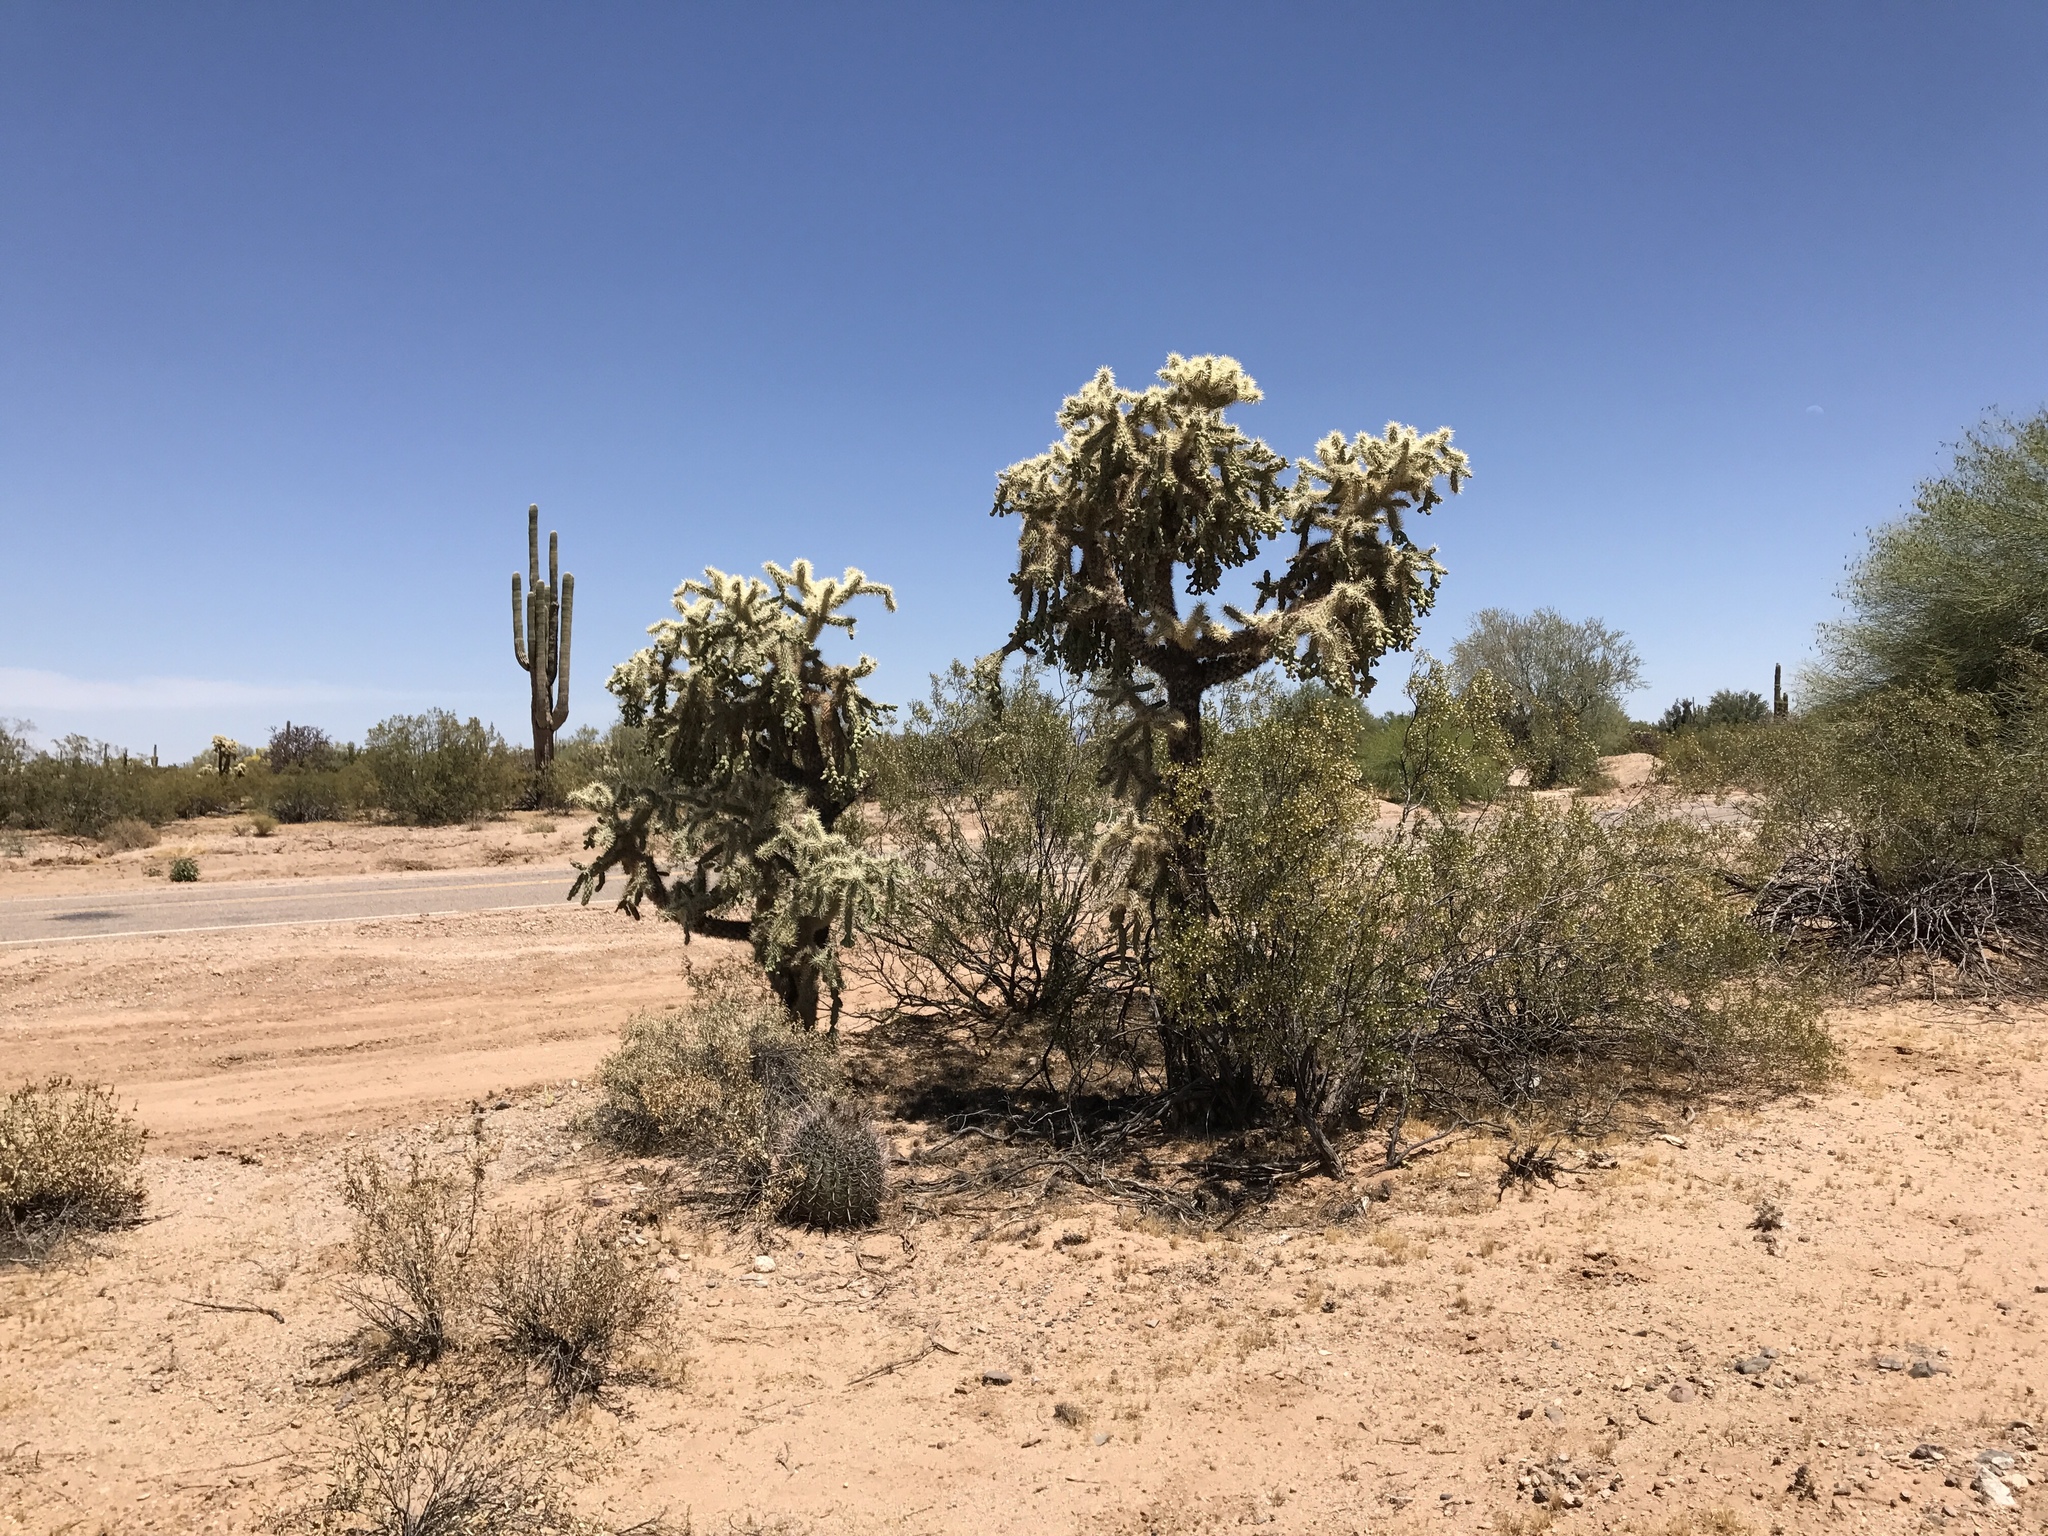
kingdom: Plantae
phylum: Tracheophyta
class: Magnoliopsida
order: Caryophyllales
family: Cactaceae
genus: Cylindropuntia
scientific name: Cylindropuntia fulgida
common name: Jumping cholla
